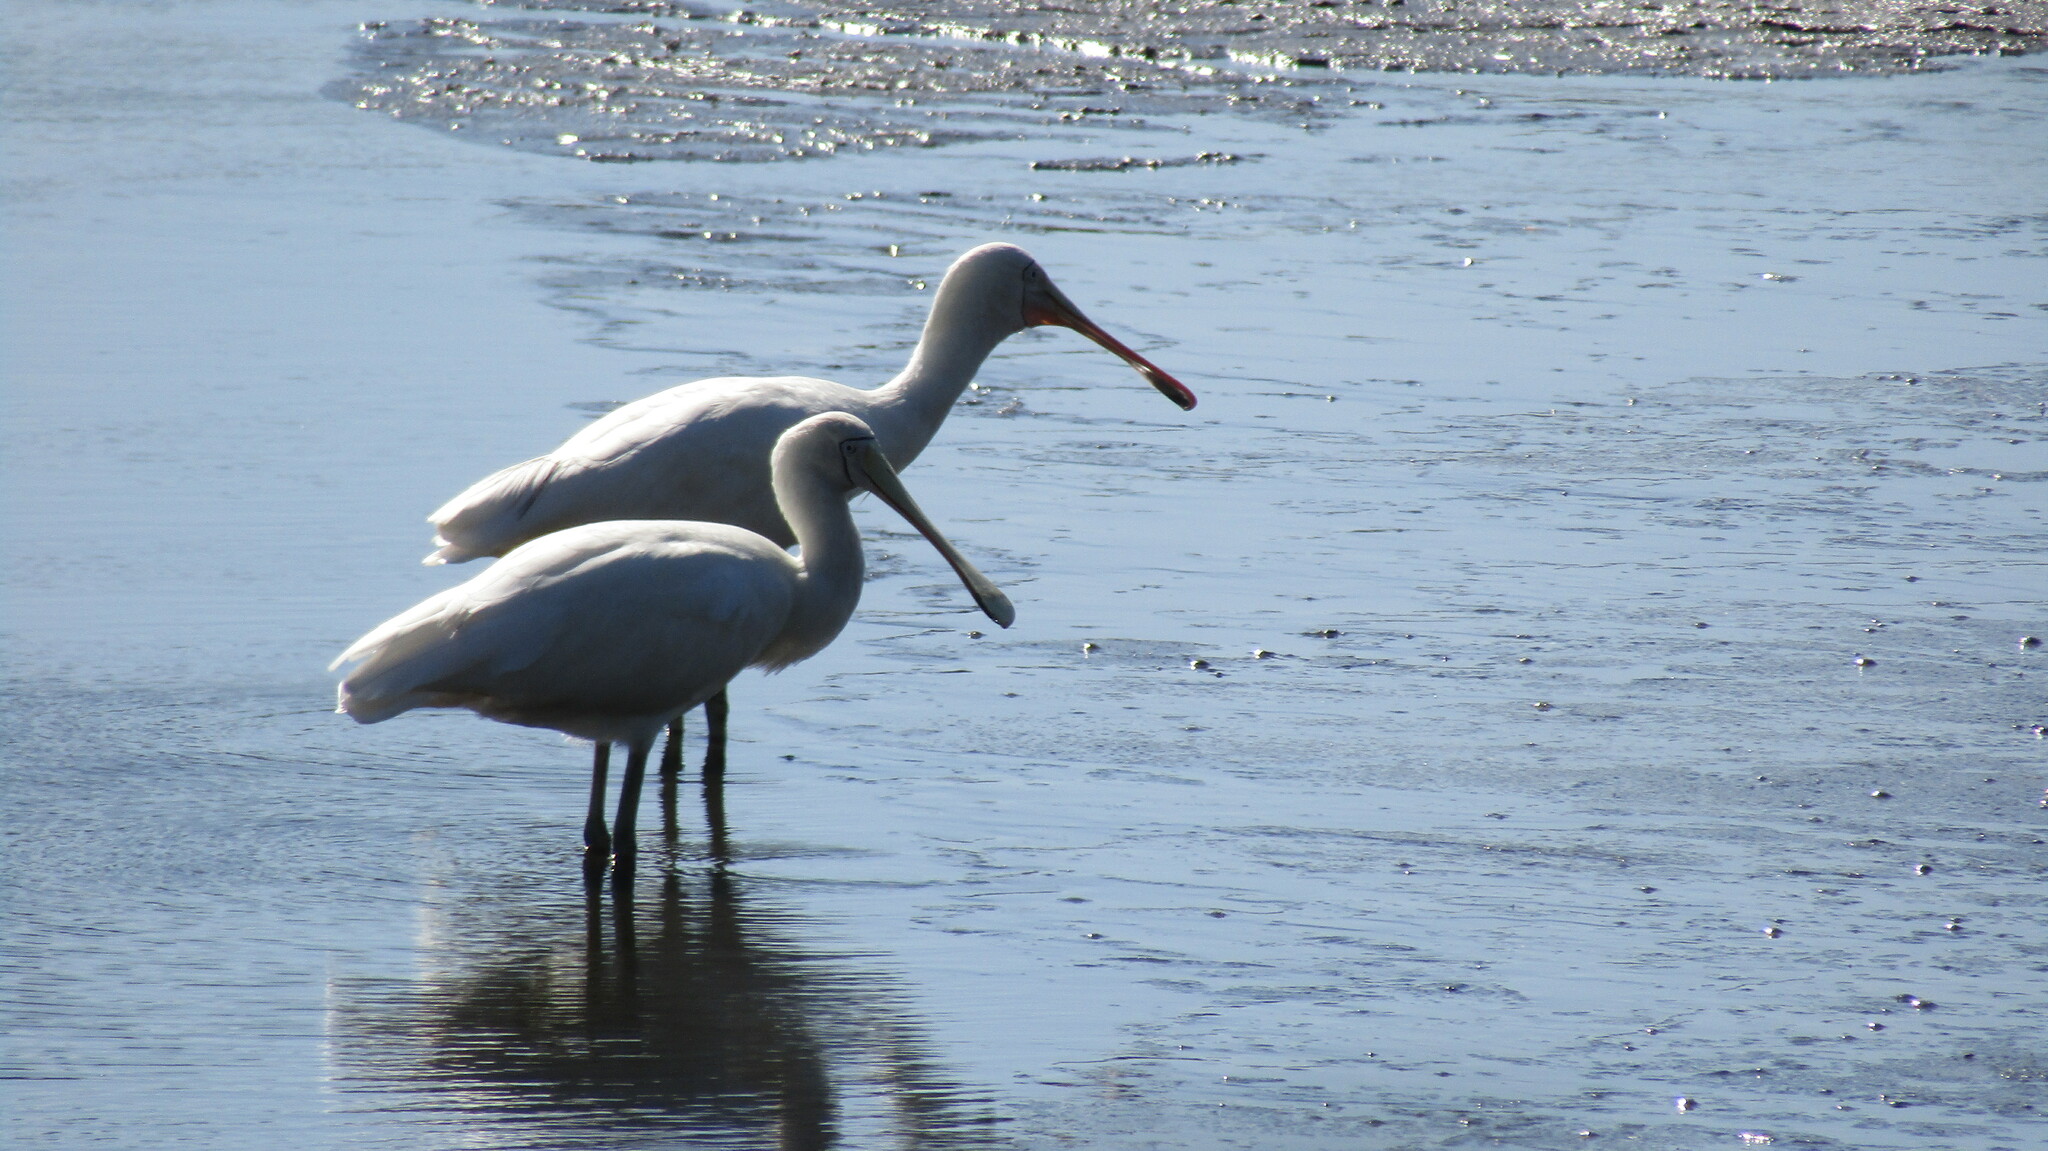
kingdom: Animalia
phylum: Chordata
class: Aves
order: Pelecaniformes
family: Threskiornithidae
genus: Platalea
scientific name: Platalea flavipes
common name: Yellow-billed spoonbill
